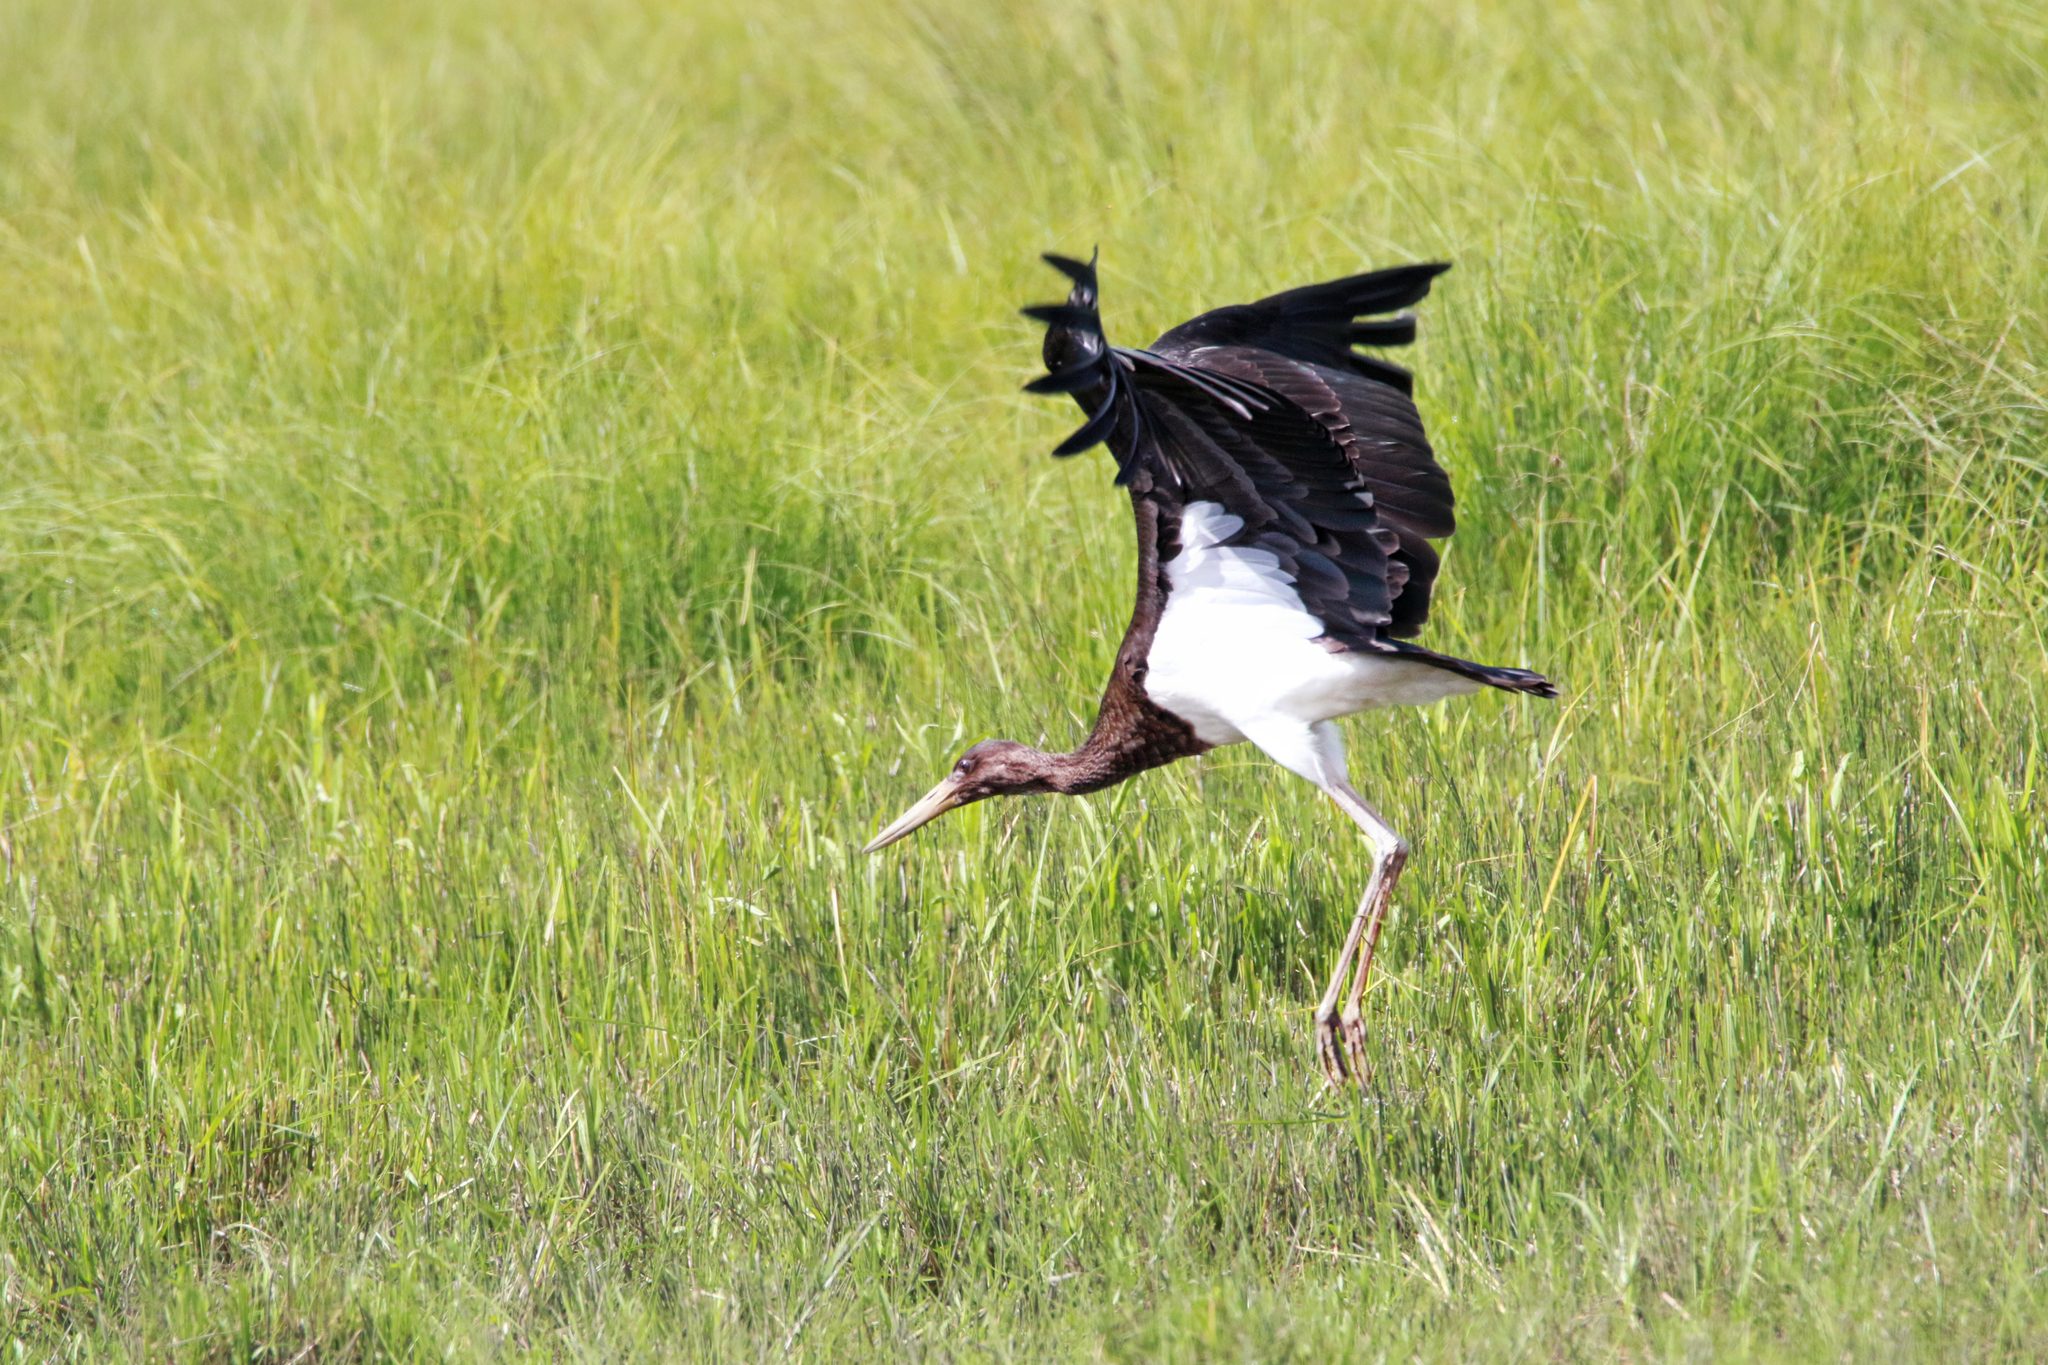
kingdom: Animalia
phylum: Chordata
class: Aves
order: Ciconiiformes
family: Ciconiidae
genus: Ciconia
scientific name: Ciconia nigra
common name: Black stork
